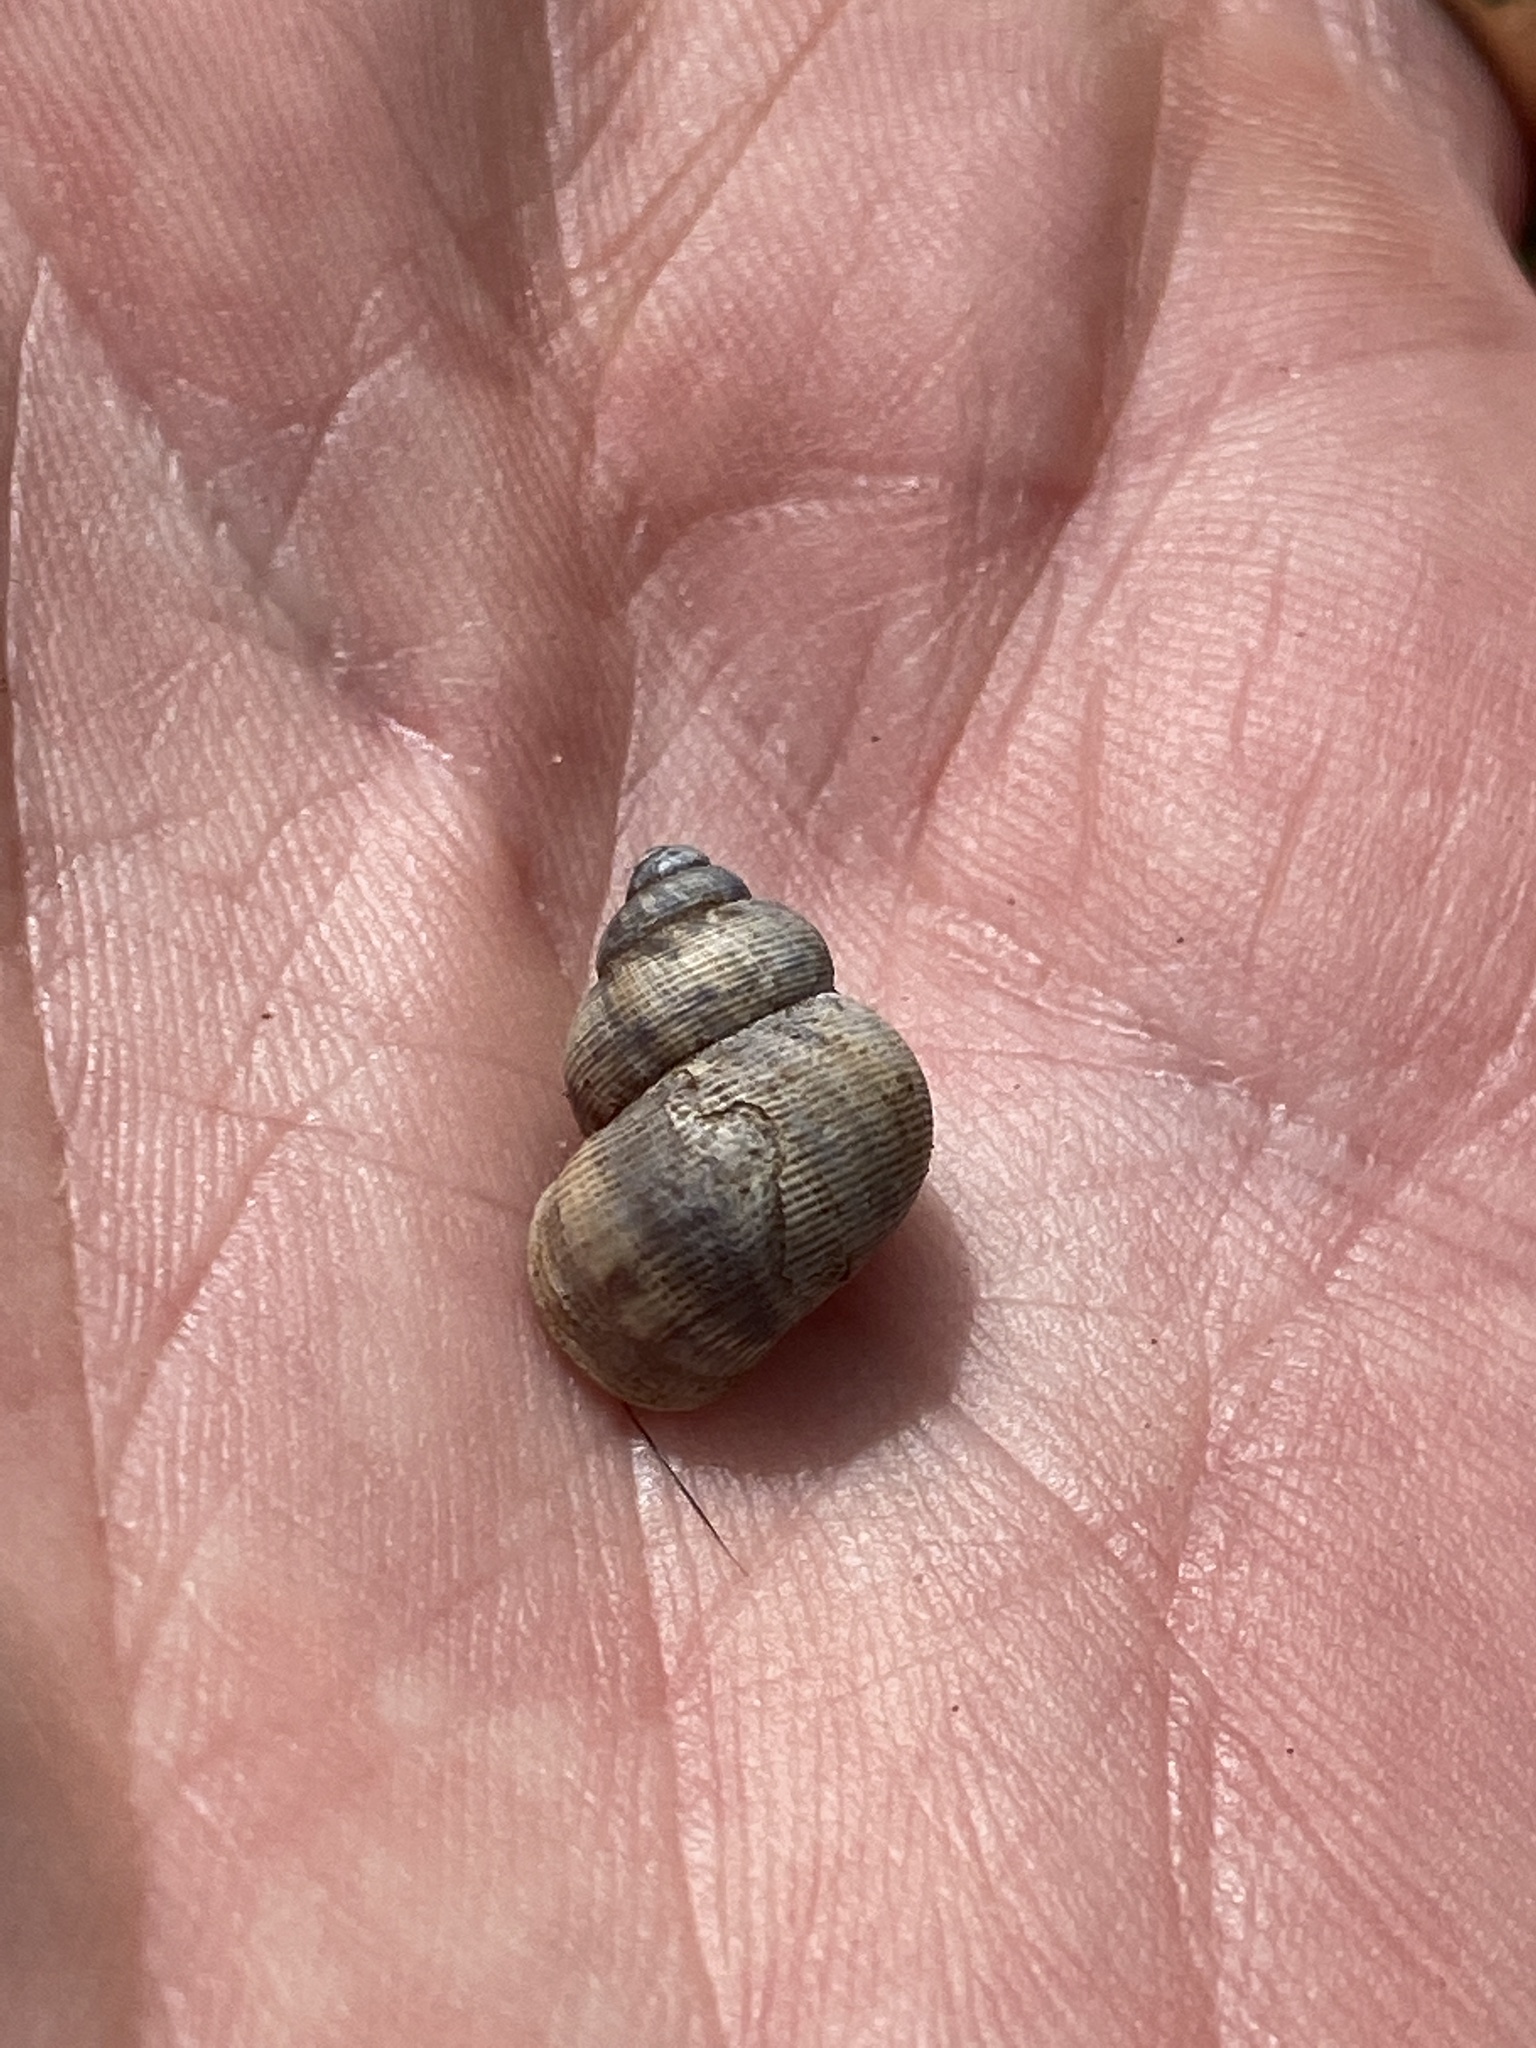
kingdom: Animalia
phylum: Mollusca
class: Gastropoda
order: Littorinimorpha
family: Pomatiidae
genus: Pomatias
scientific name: Pomatias elegans
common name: Red-mouthed snail
